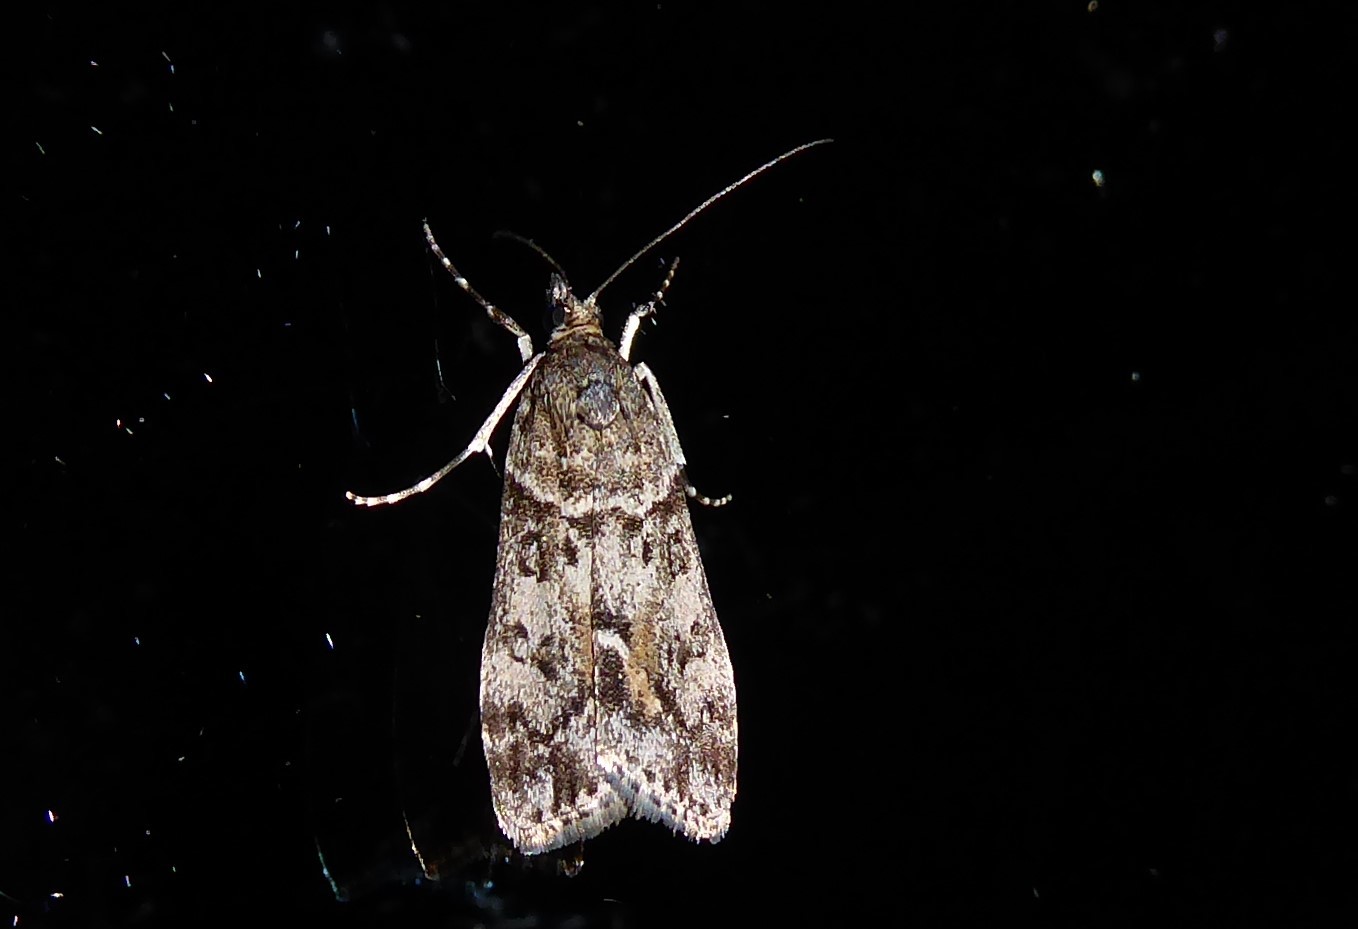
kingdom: Animalia
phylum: Arthropoda
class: Insecta
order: Lepidoptera
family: Crambidae
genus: Eudonia
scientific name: Eudonia submarginalis
